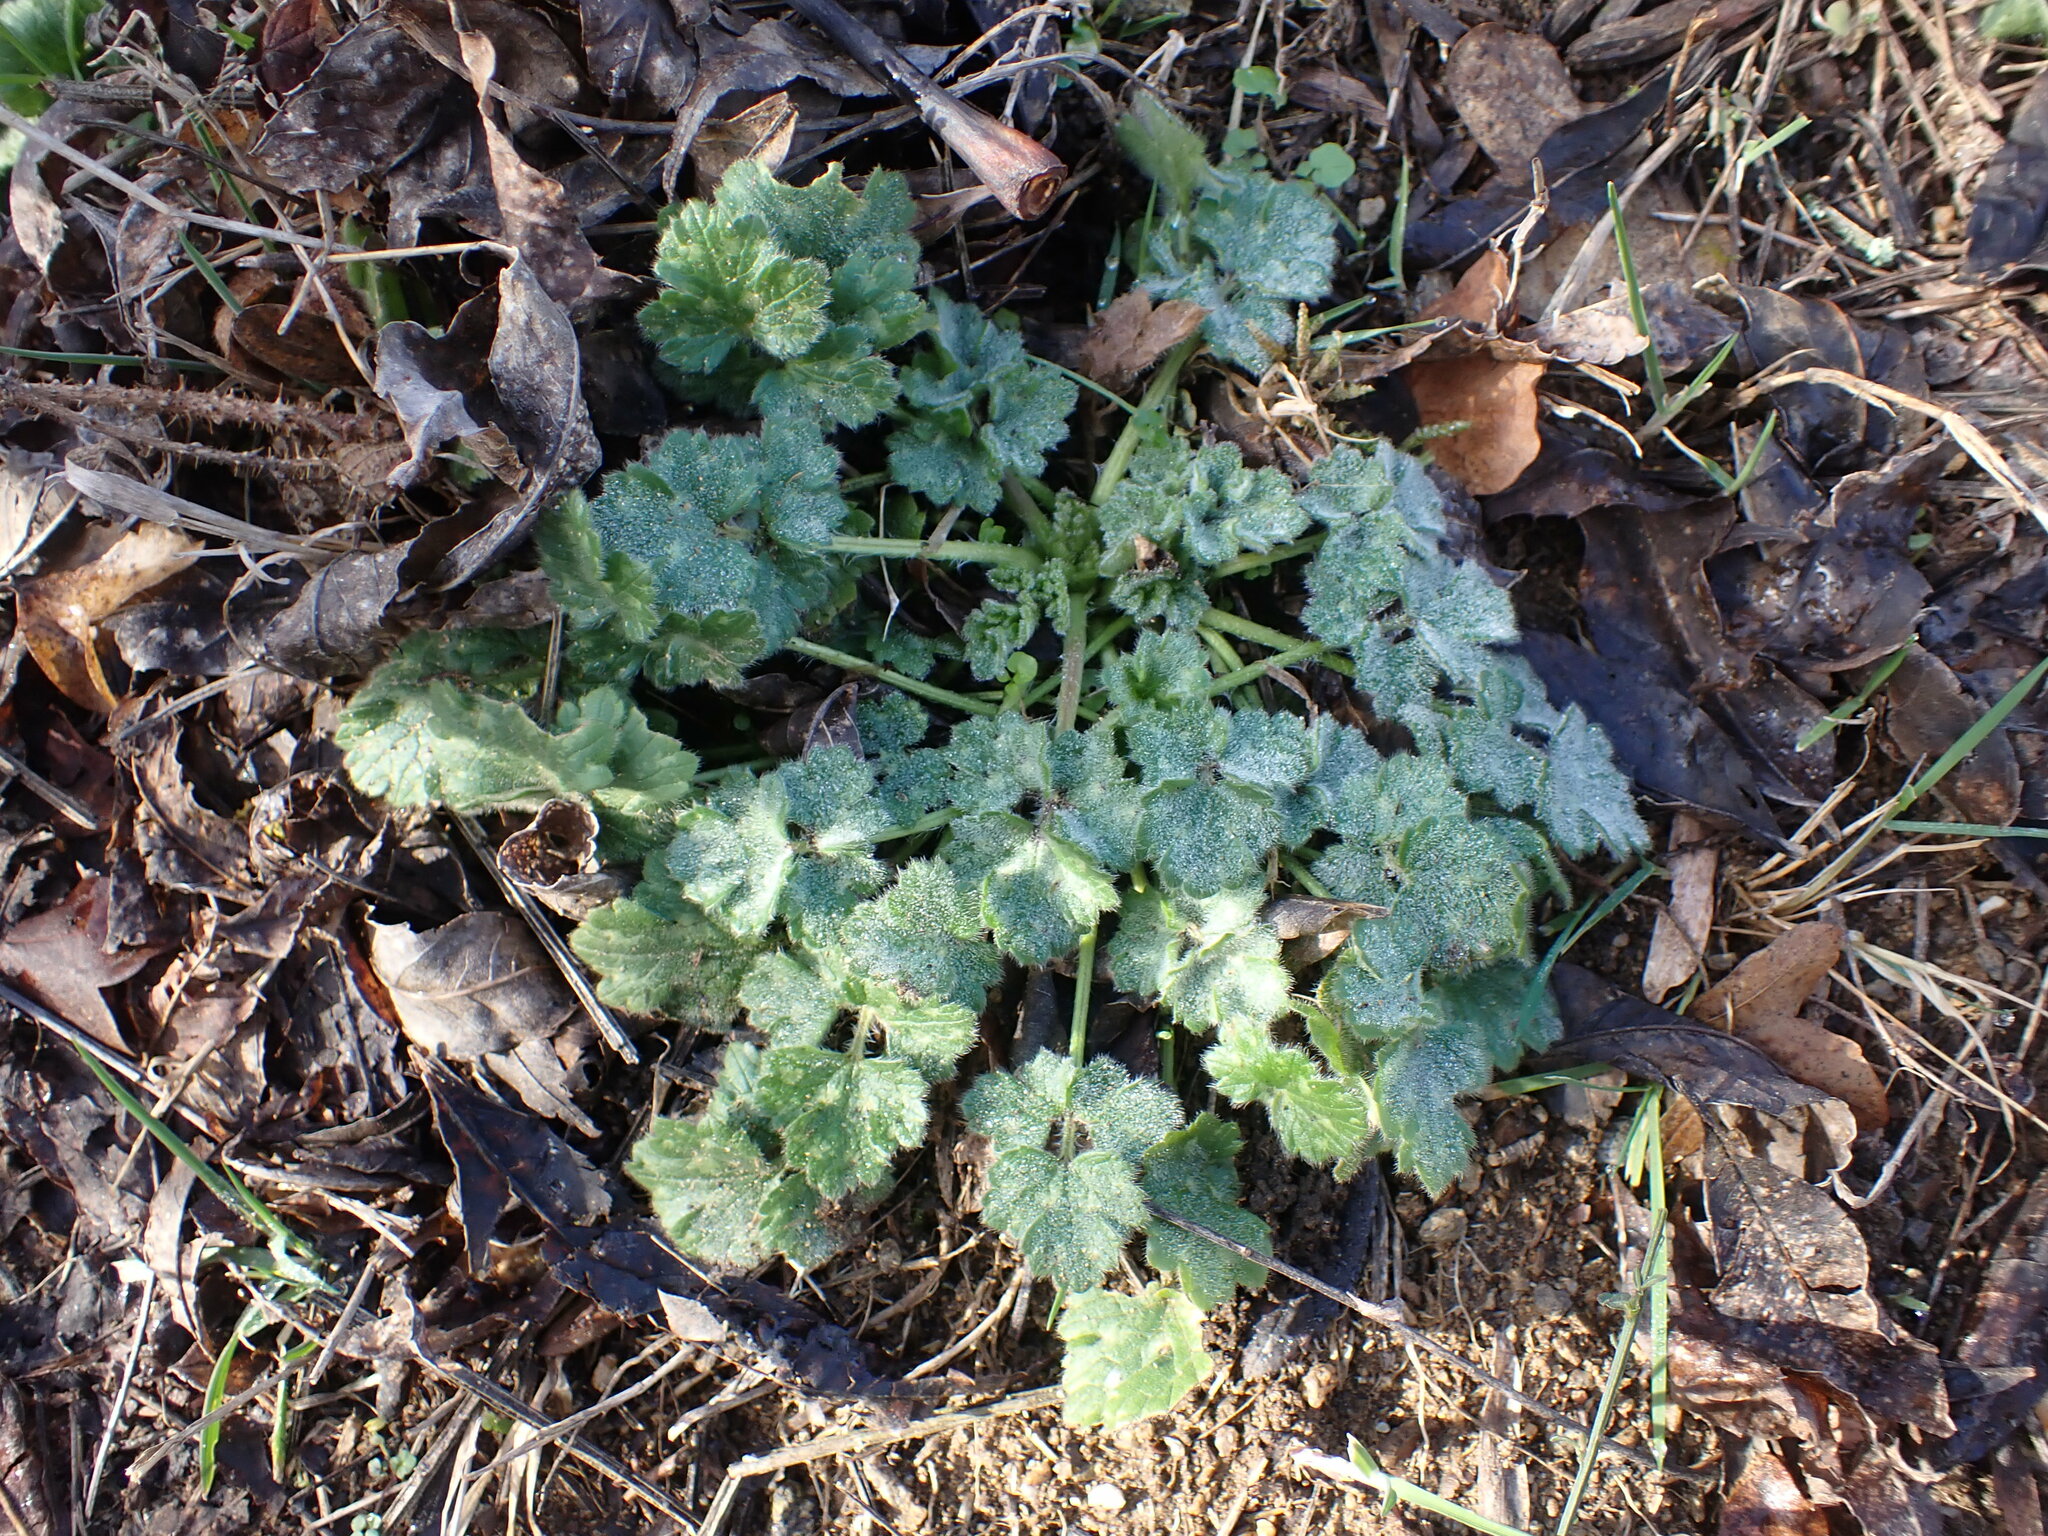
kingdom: Plantae
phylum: Tracheophyta
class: Magnoliopsida
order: Ranunculales
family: Ranunculaceae
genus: Ranunculus
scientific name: Ranunculus bulbosus
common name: Bulbous buttercup
